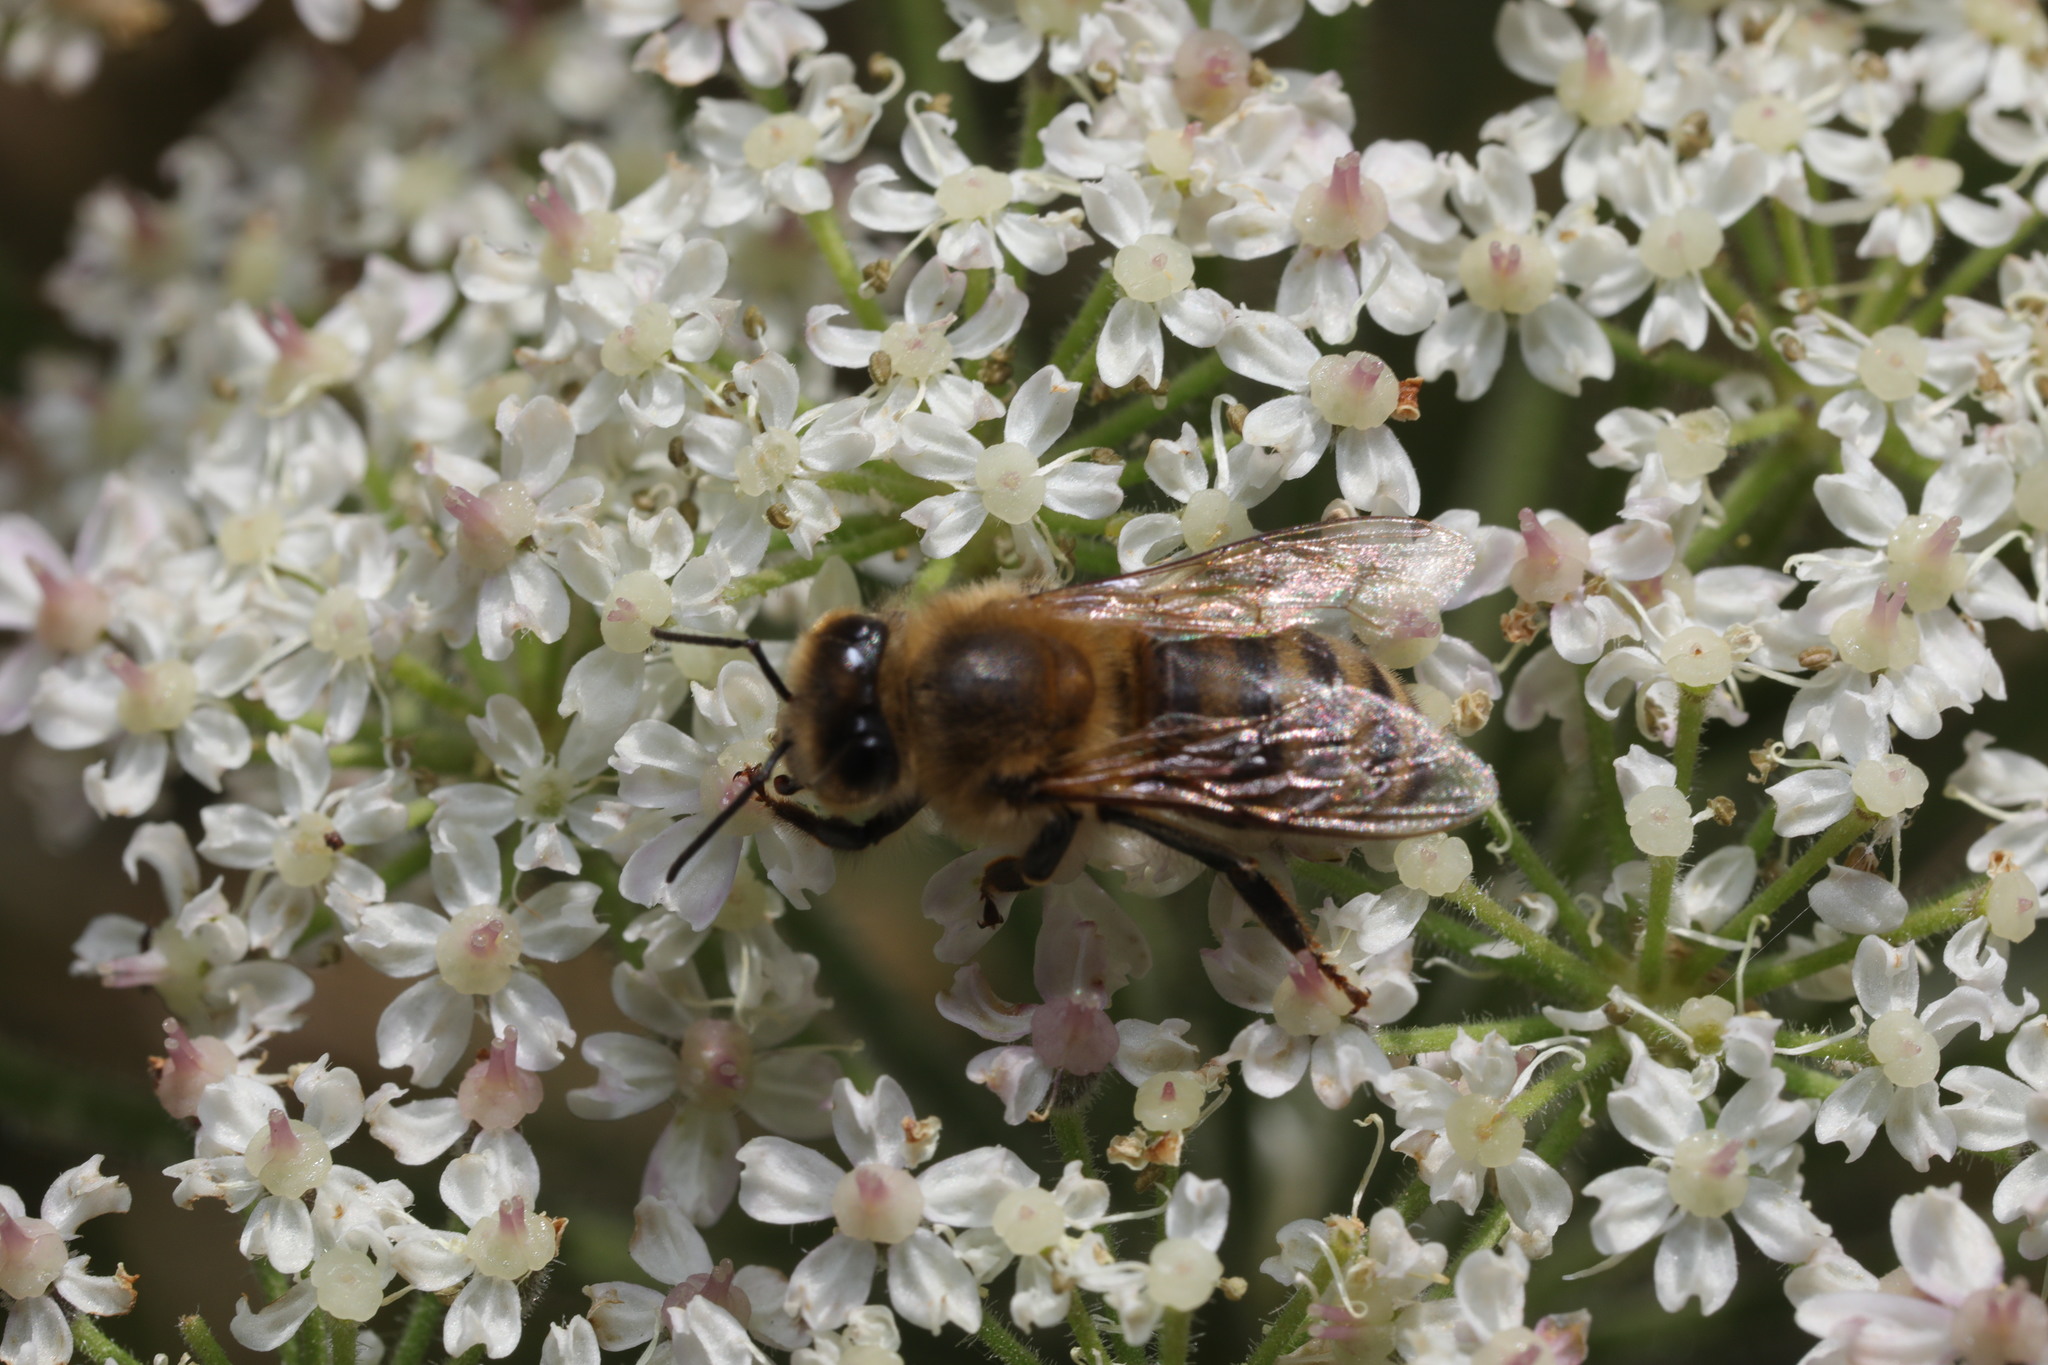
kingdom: Animalia
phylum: Arthropoda
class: Insecta
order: Hymenoptera
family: Apidae
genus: Apis
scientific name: Apis mellifera
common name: Honey bee
